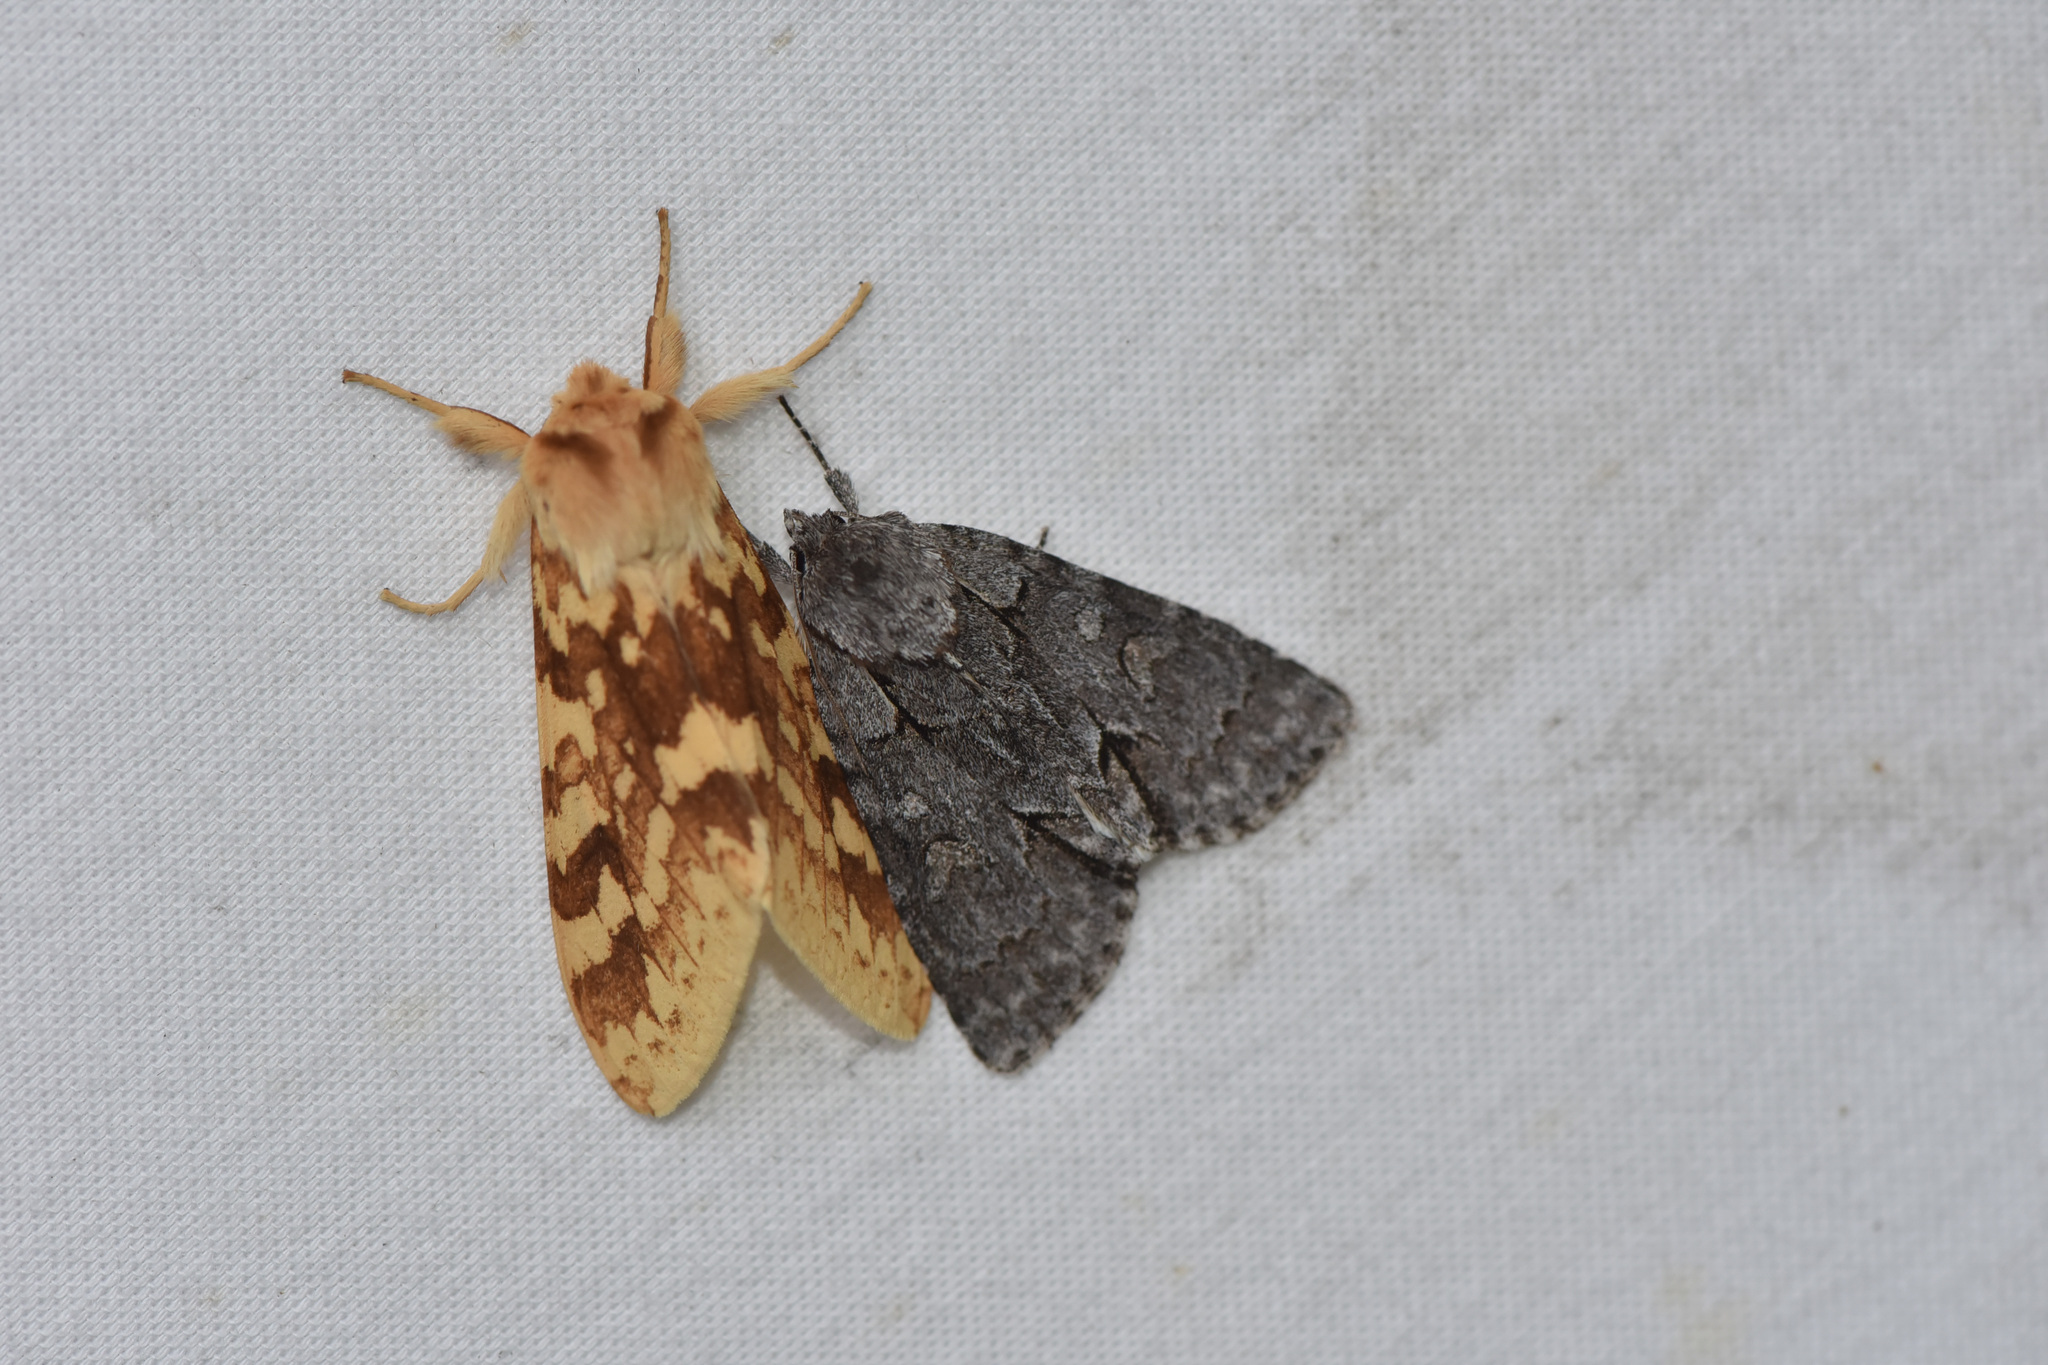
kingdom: Animalia
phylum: Arthropoda
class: Insecta
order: Lepidoptera
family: Noctuidae
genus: Acronicta
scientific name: Acronicta grisea
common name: Gray dagger
